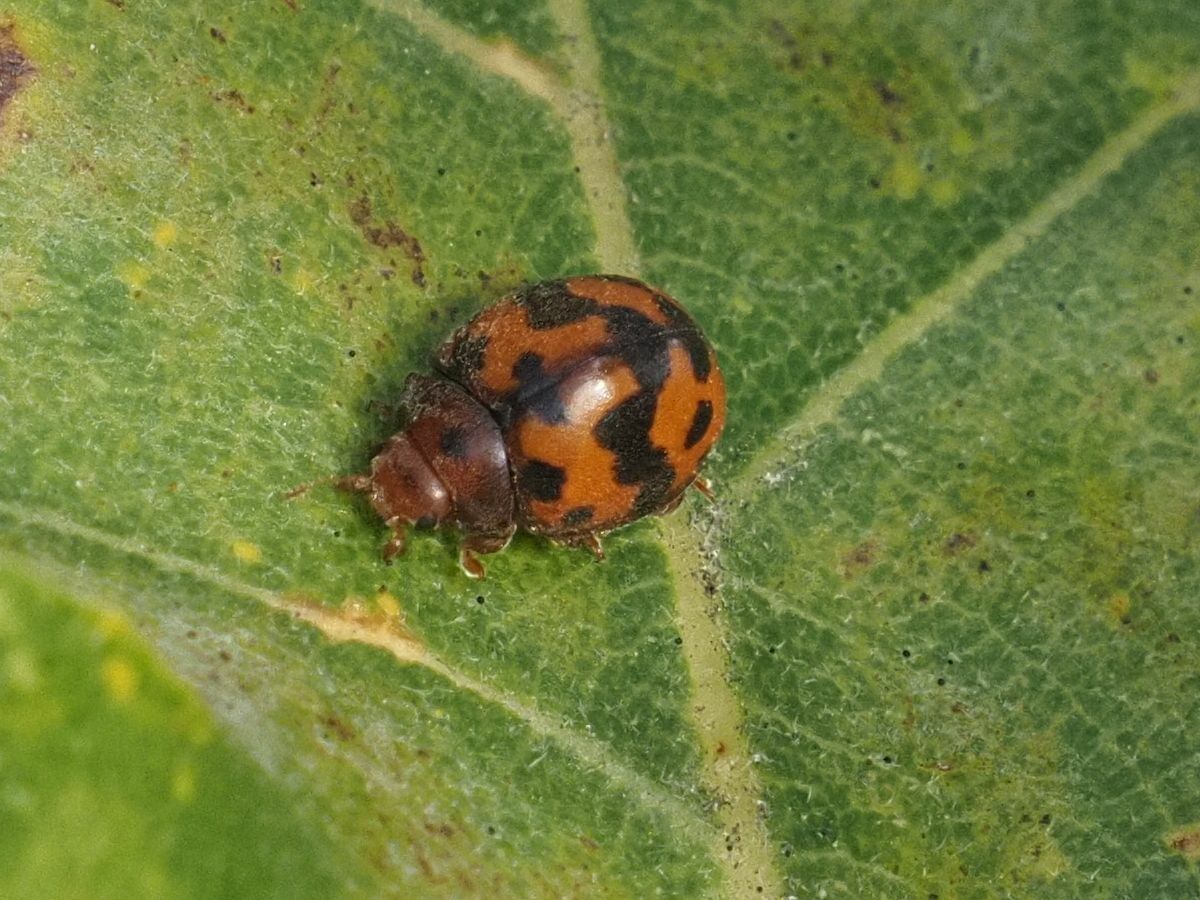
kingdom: Animalia
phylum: Arthropoda
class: Insecta
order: Coleoptera
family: Coccinellidae
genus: Subcoccinella
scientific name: Subcoccinella vigintiquatuorpunctata
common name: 24-spot ladybird
